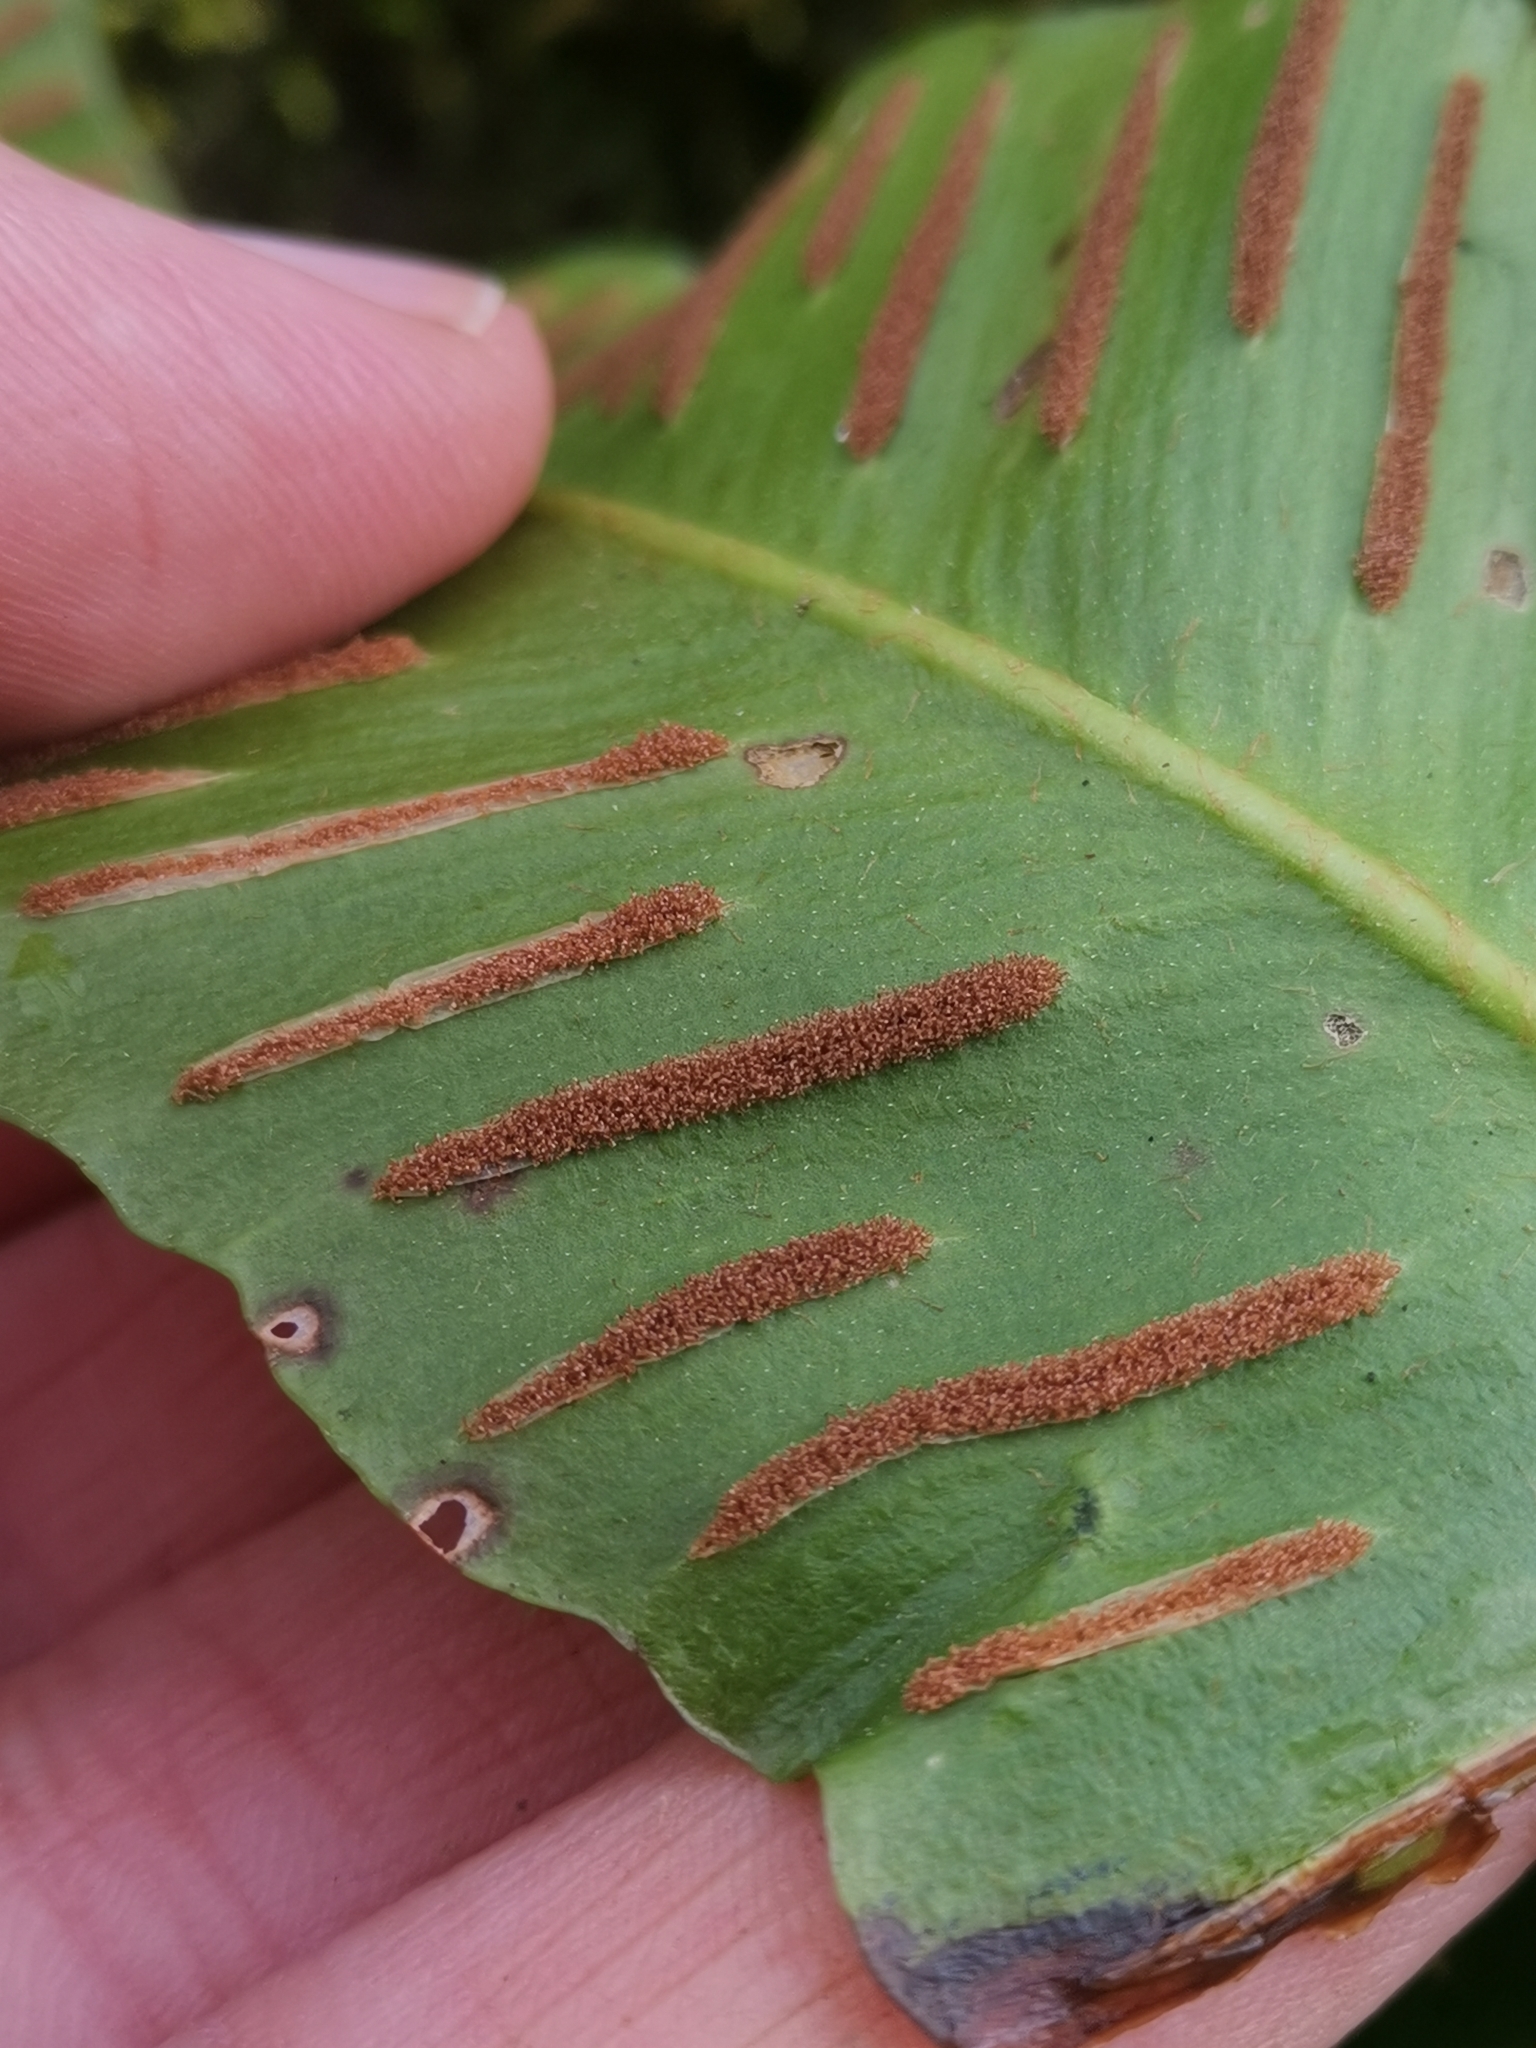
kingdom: Plantae
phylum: Tracheophyta
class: Polypodiopsida
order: Polypodiales
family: Aspleniaceae
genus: Asplenium
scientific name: Asplenium scolopendrium
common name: Hart's-tongue fern
